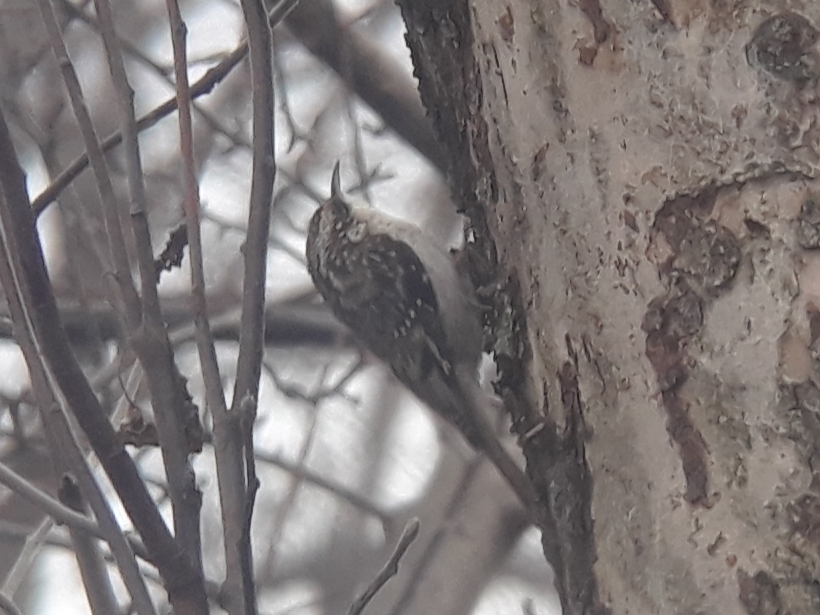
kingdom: Animalia
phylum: Chordata
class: Aves
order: Passeriformes
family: Certhiidae
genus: Certhia
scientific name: Certhia americana
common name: Brown creeper
